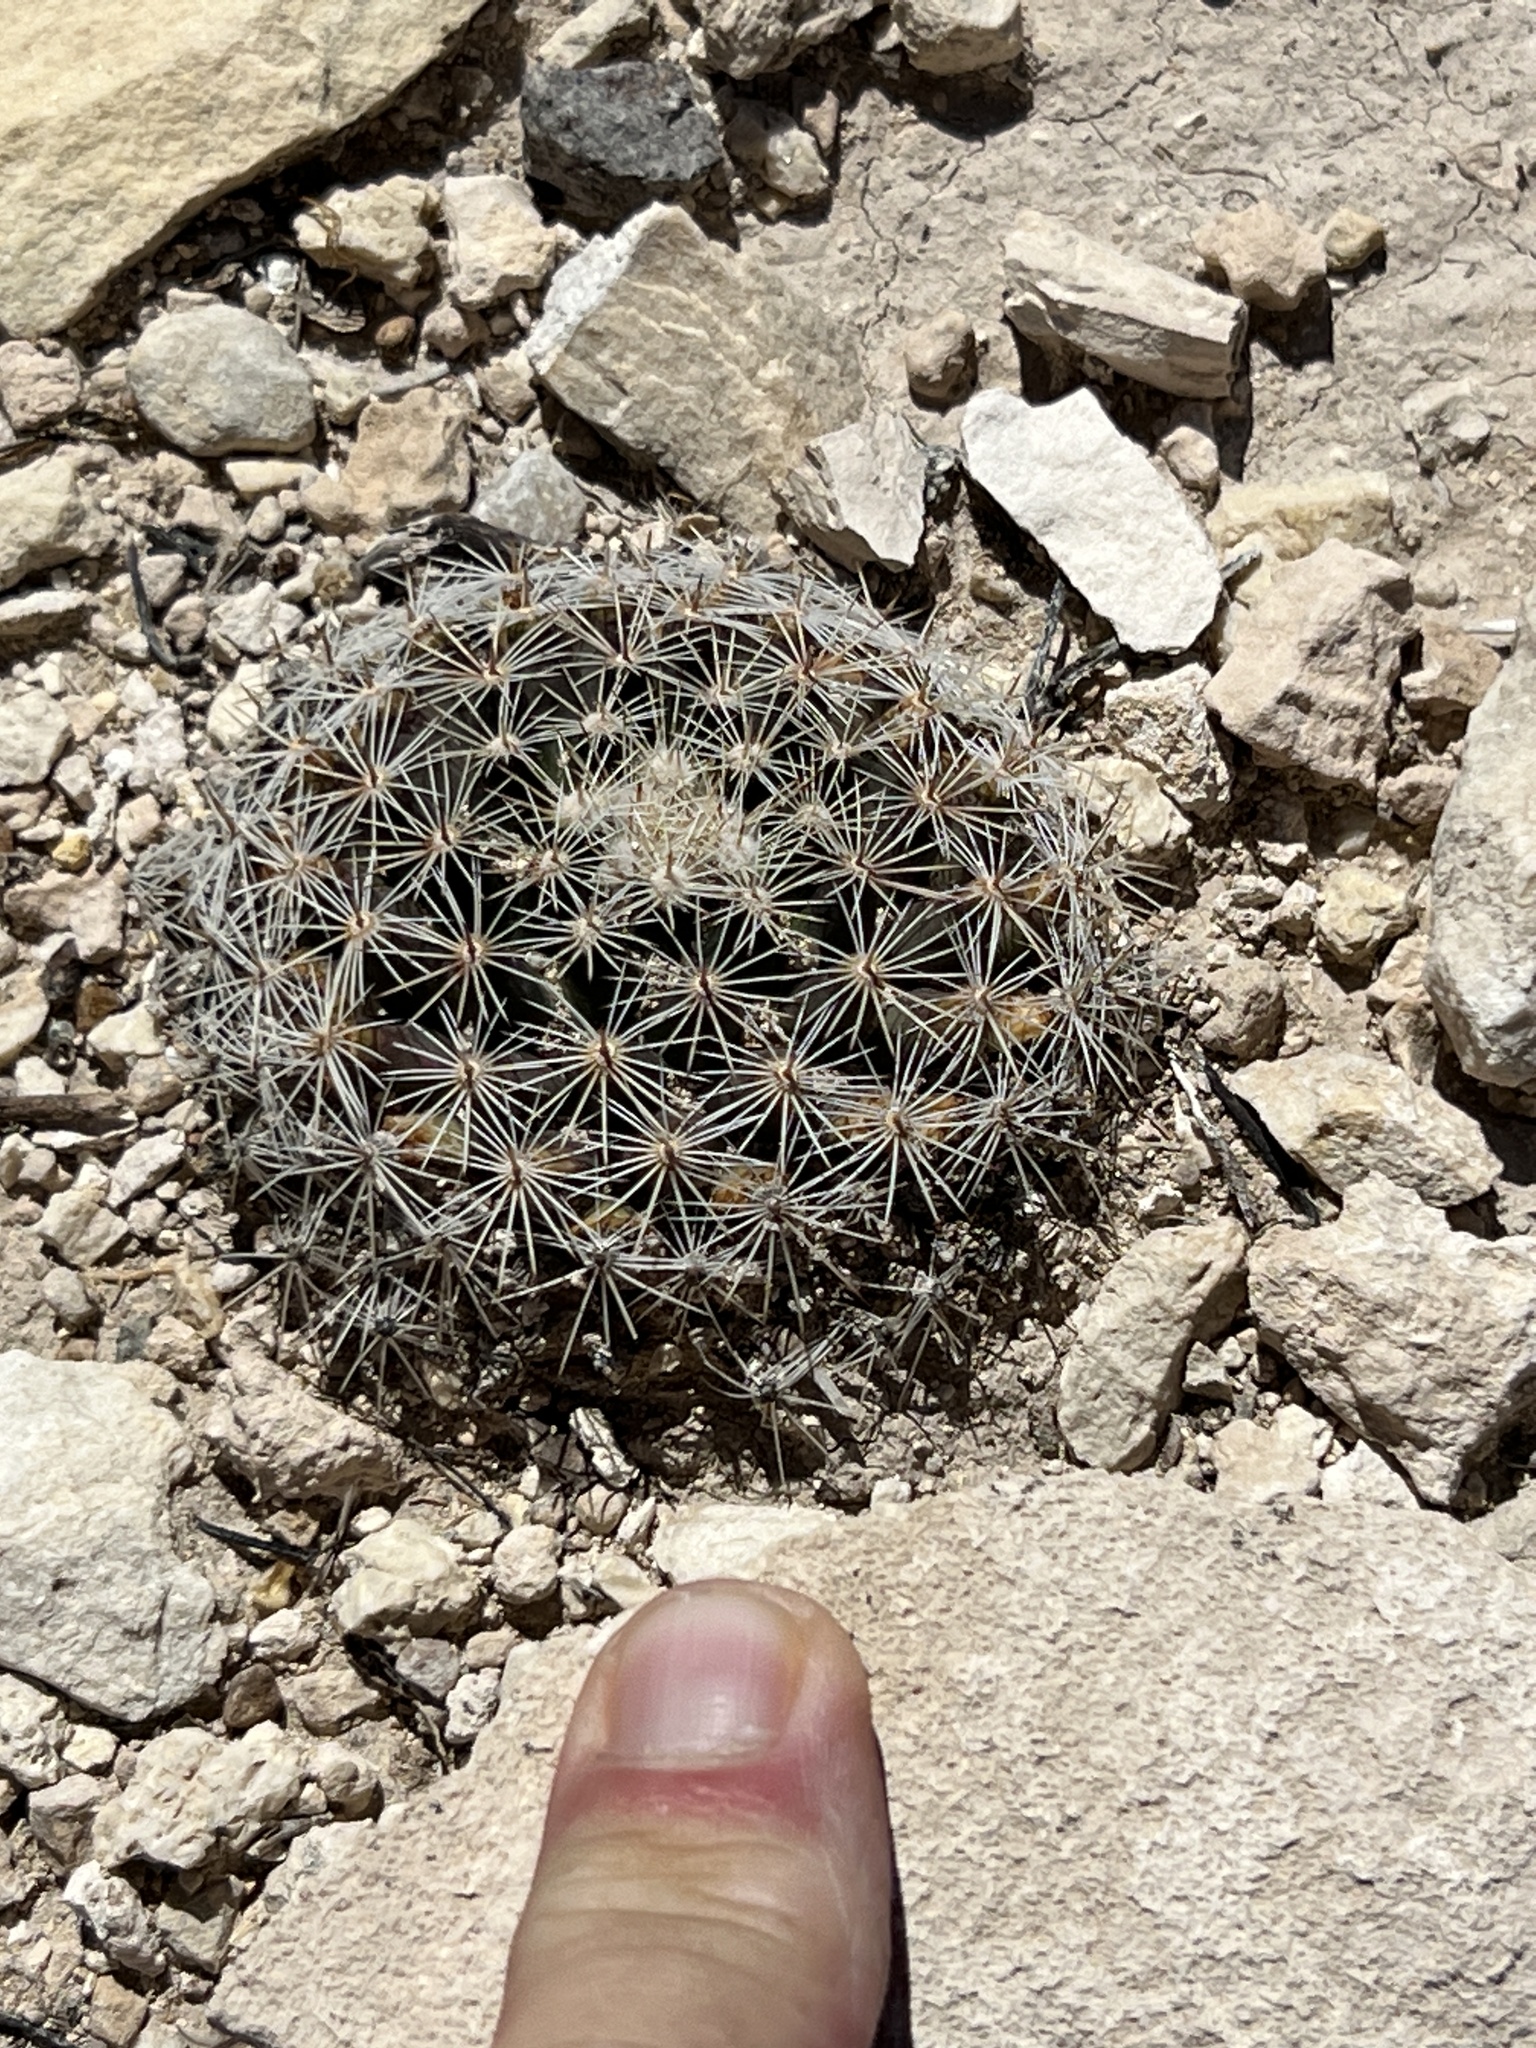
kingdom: Plantae
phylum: Tracheophyta
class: Magnoliopsida
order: Caryophyllales
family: Cactaceae
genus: Mammillaria
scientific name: Mammillaria heyderi
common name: Little nipple cactus
